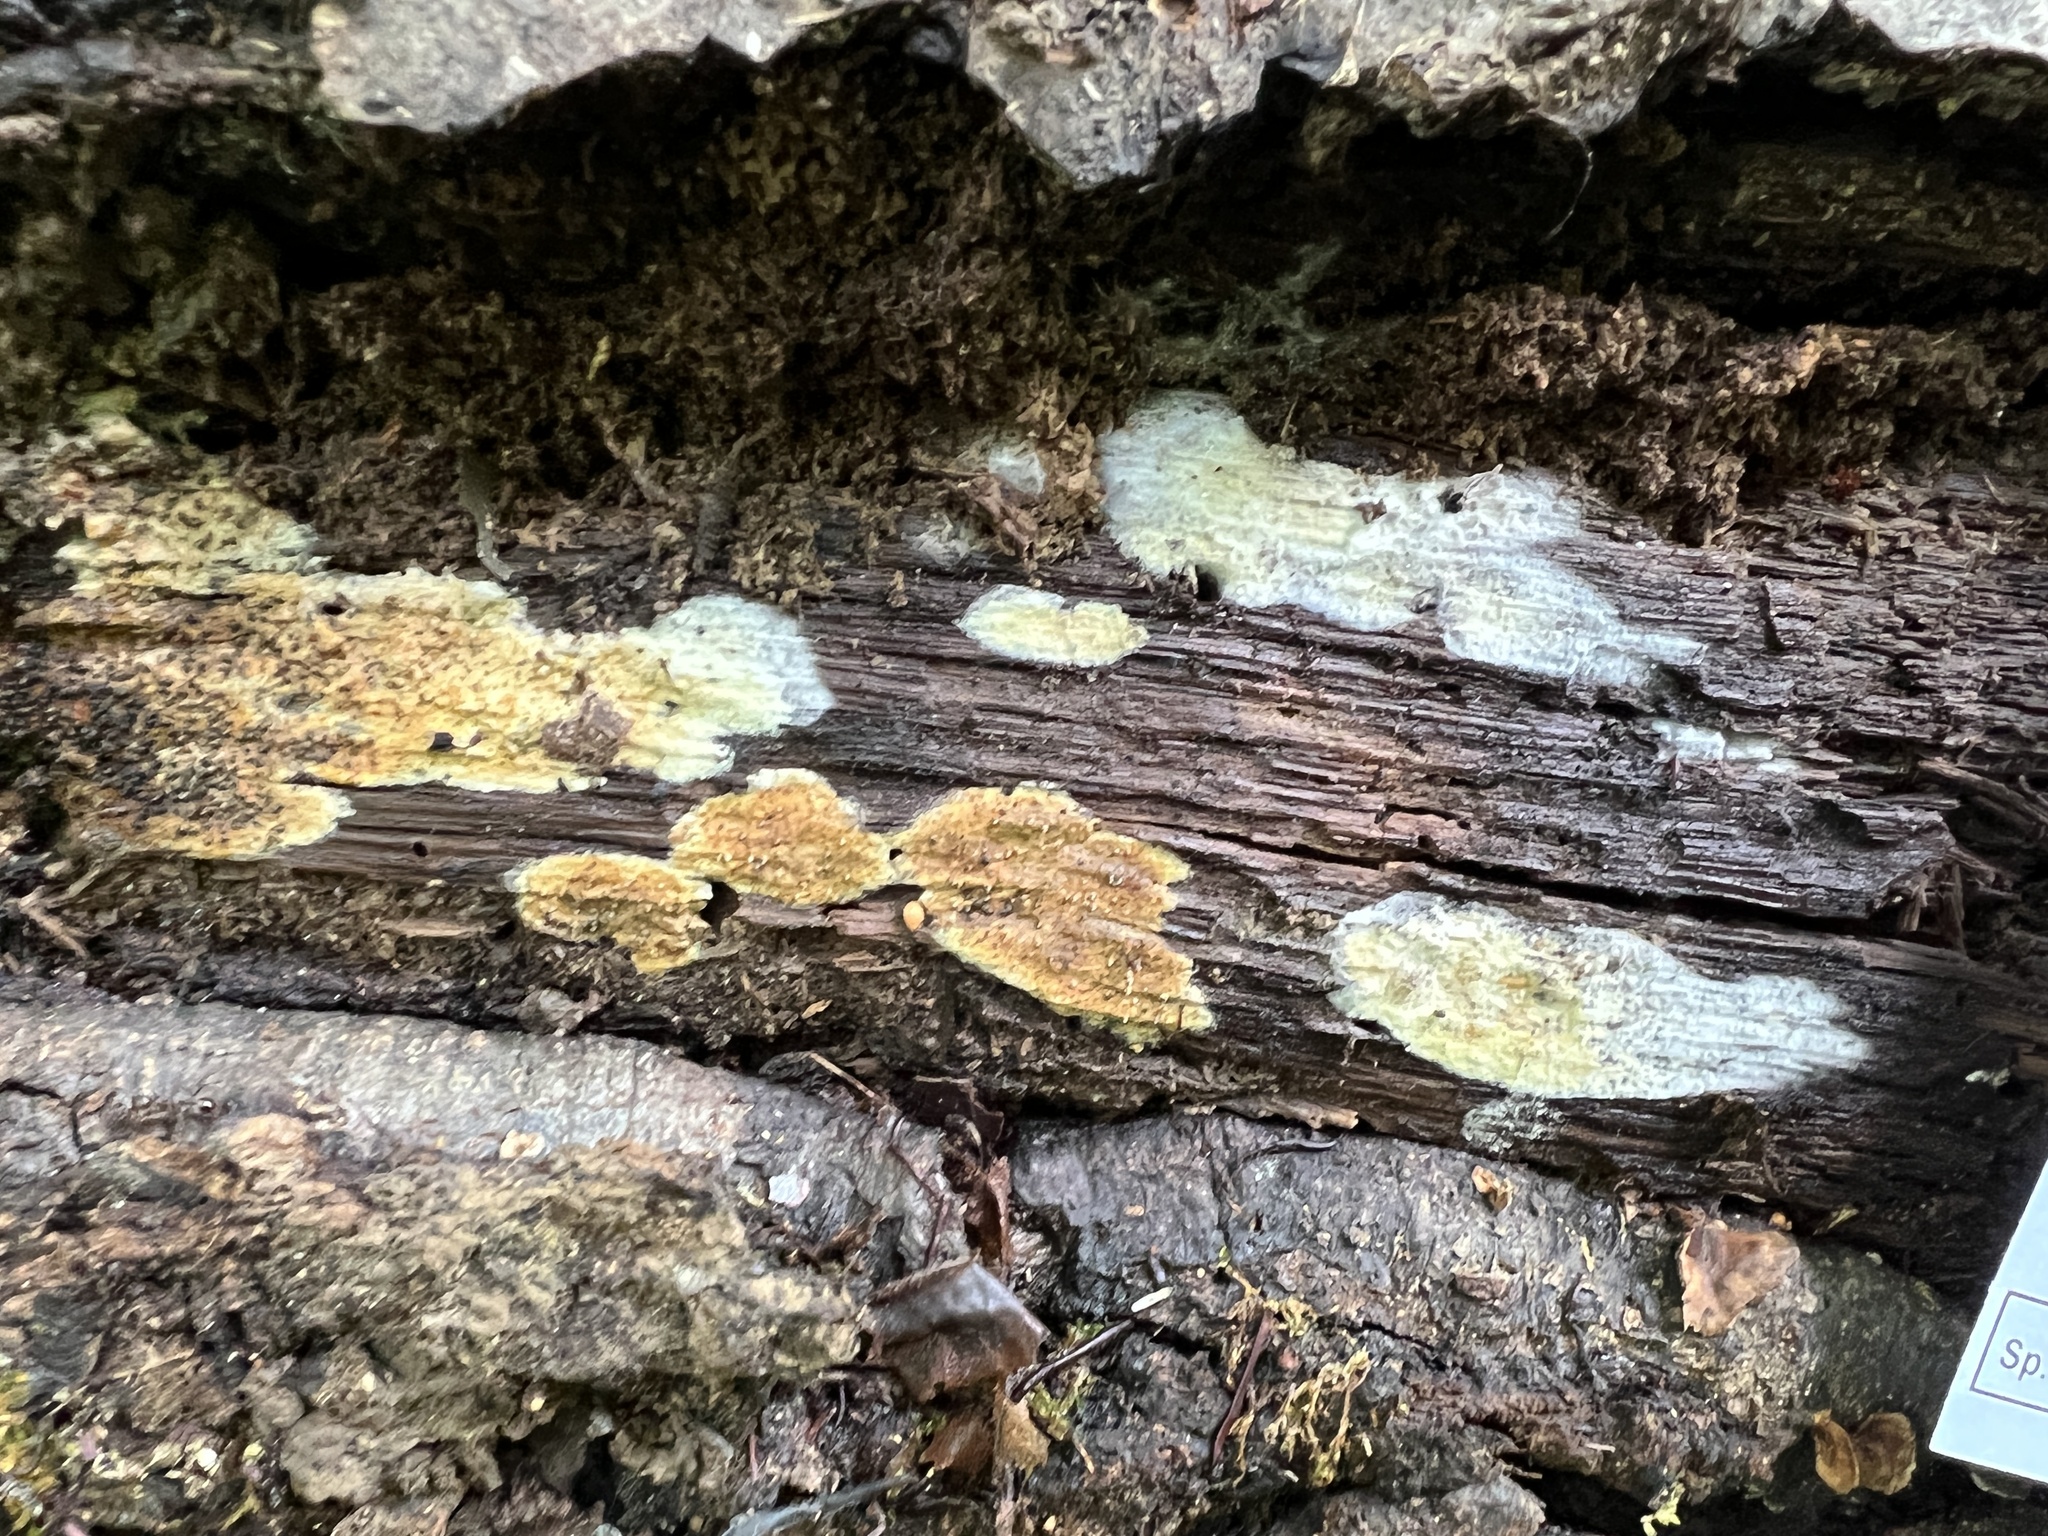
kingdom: Fungi
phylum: Basidiomycota
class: Agaricomycetes
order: Boletales
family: Serpulaceae
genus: Serpula
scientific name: Serpula himantioides
